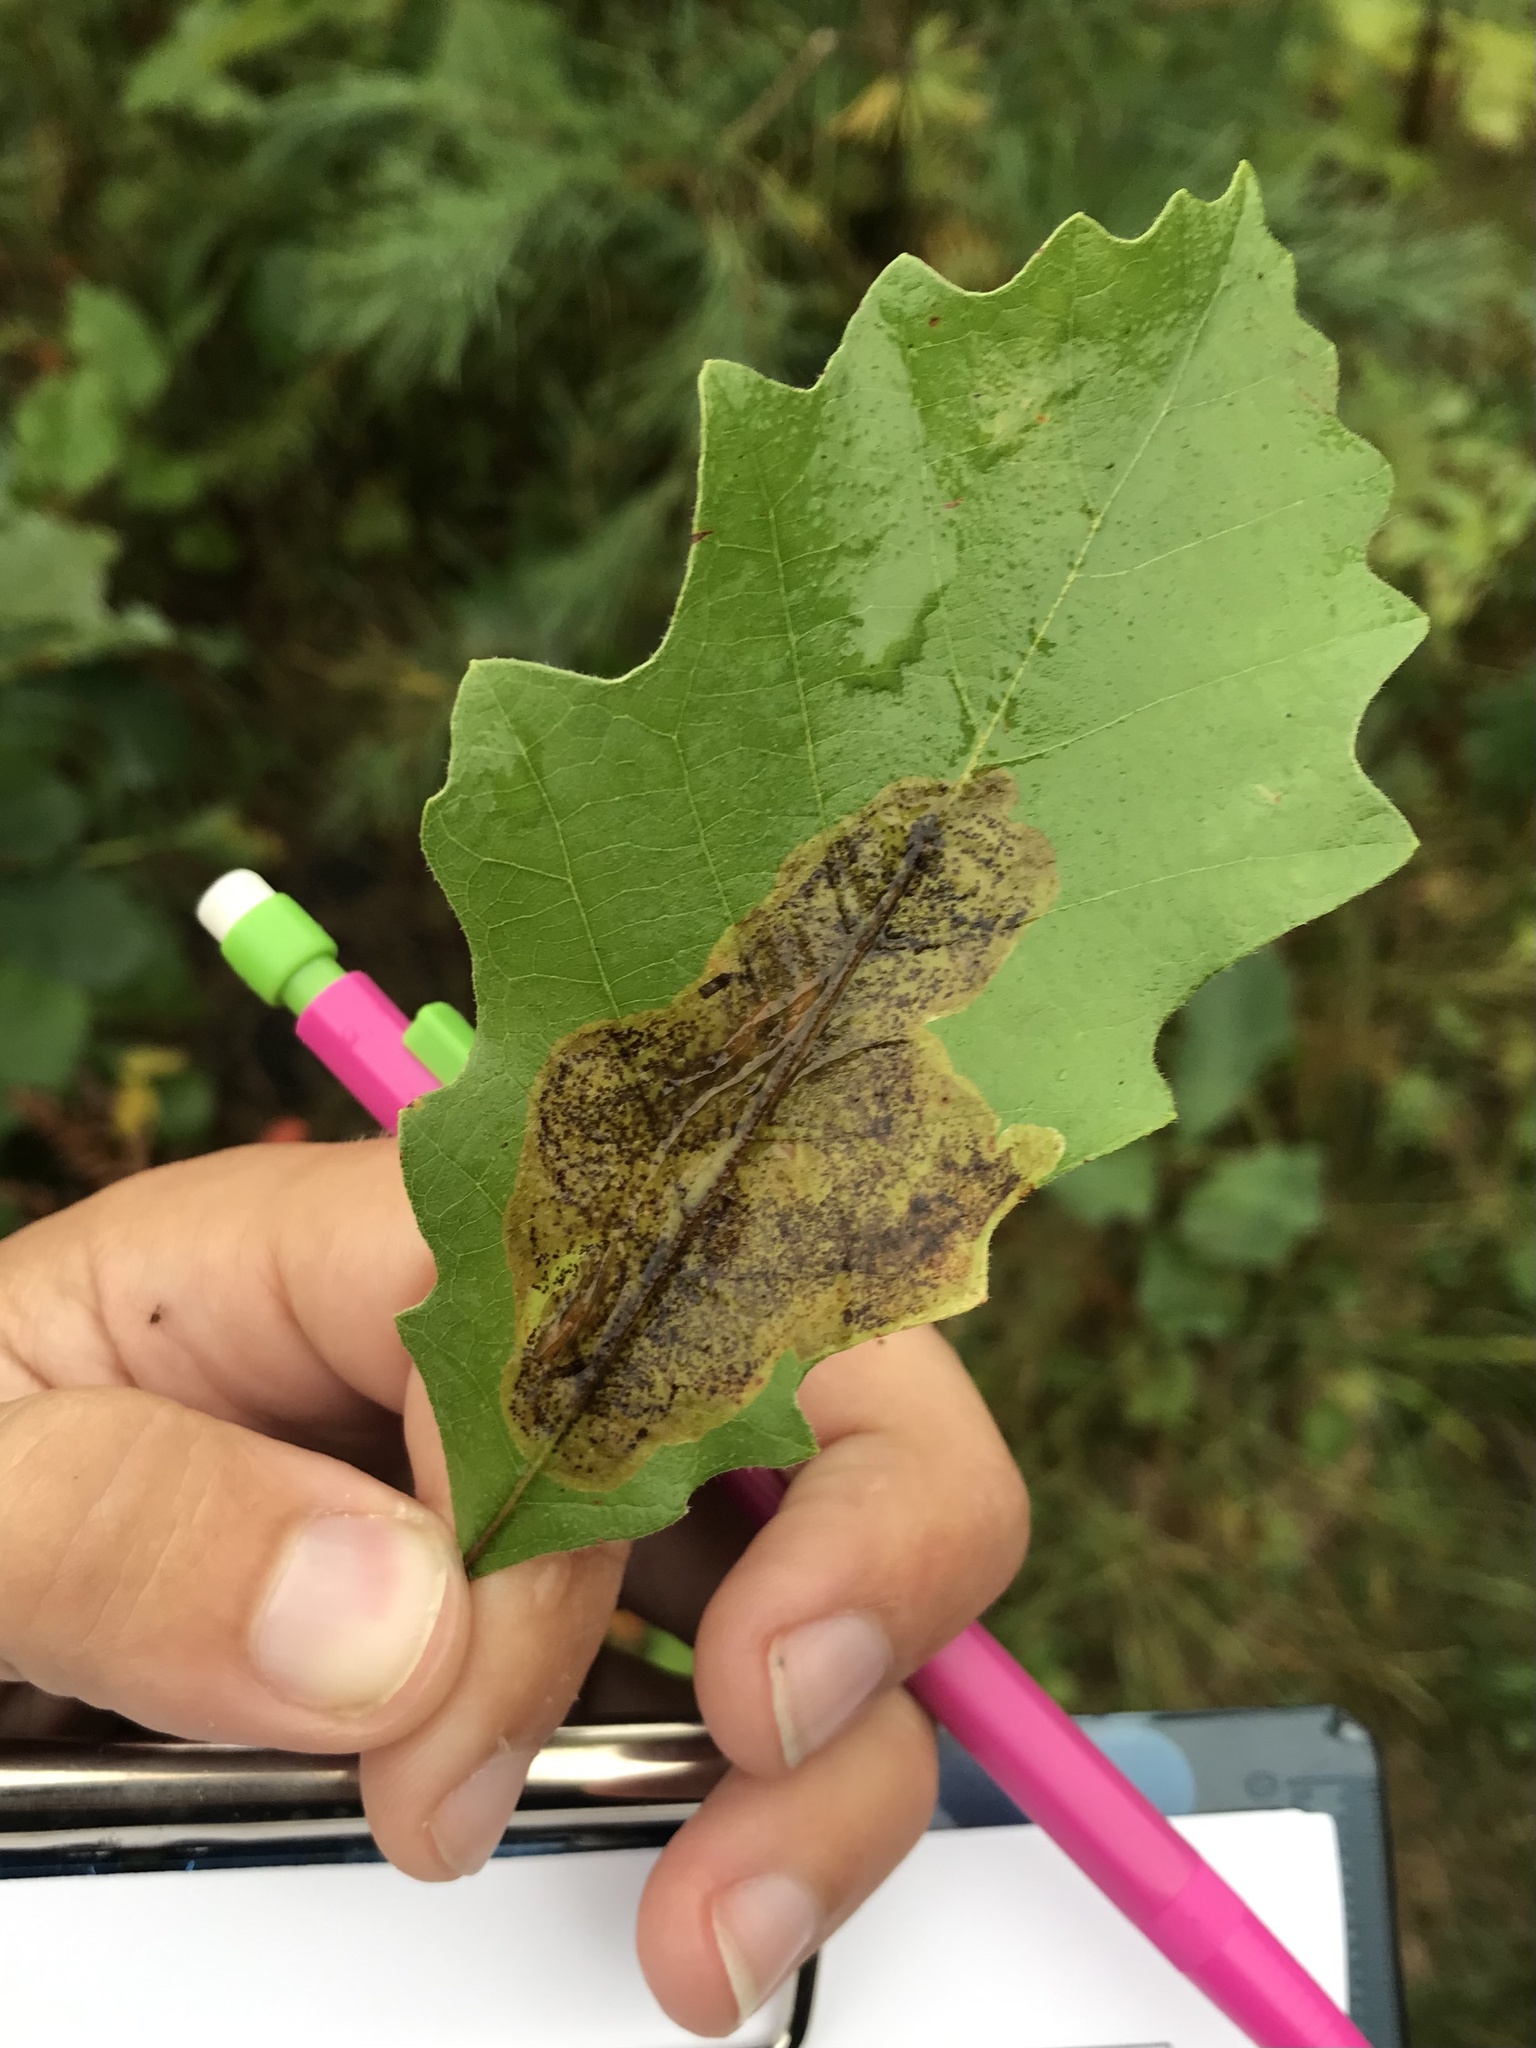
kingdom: Animalia
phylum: Arthropoda
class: Insecta
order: Lepidoptera
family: Gracillariidae
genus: Cameraria
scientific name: Cameraria fletcherella
